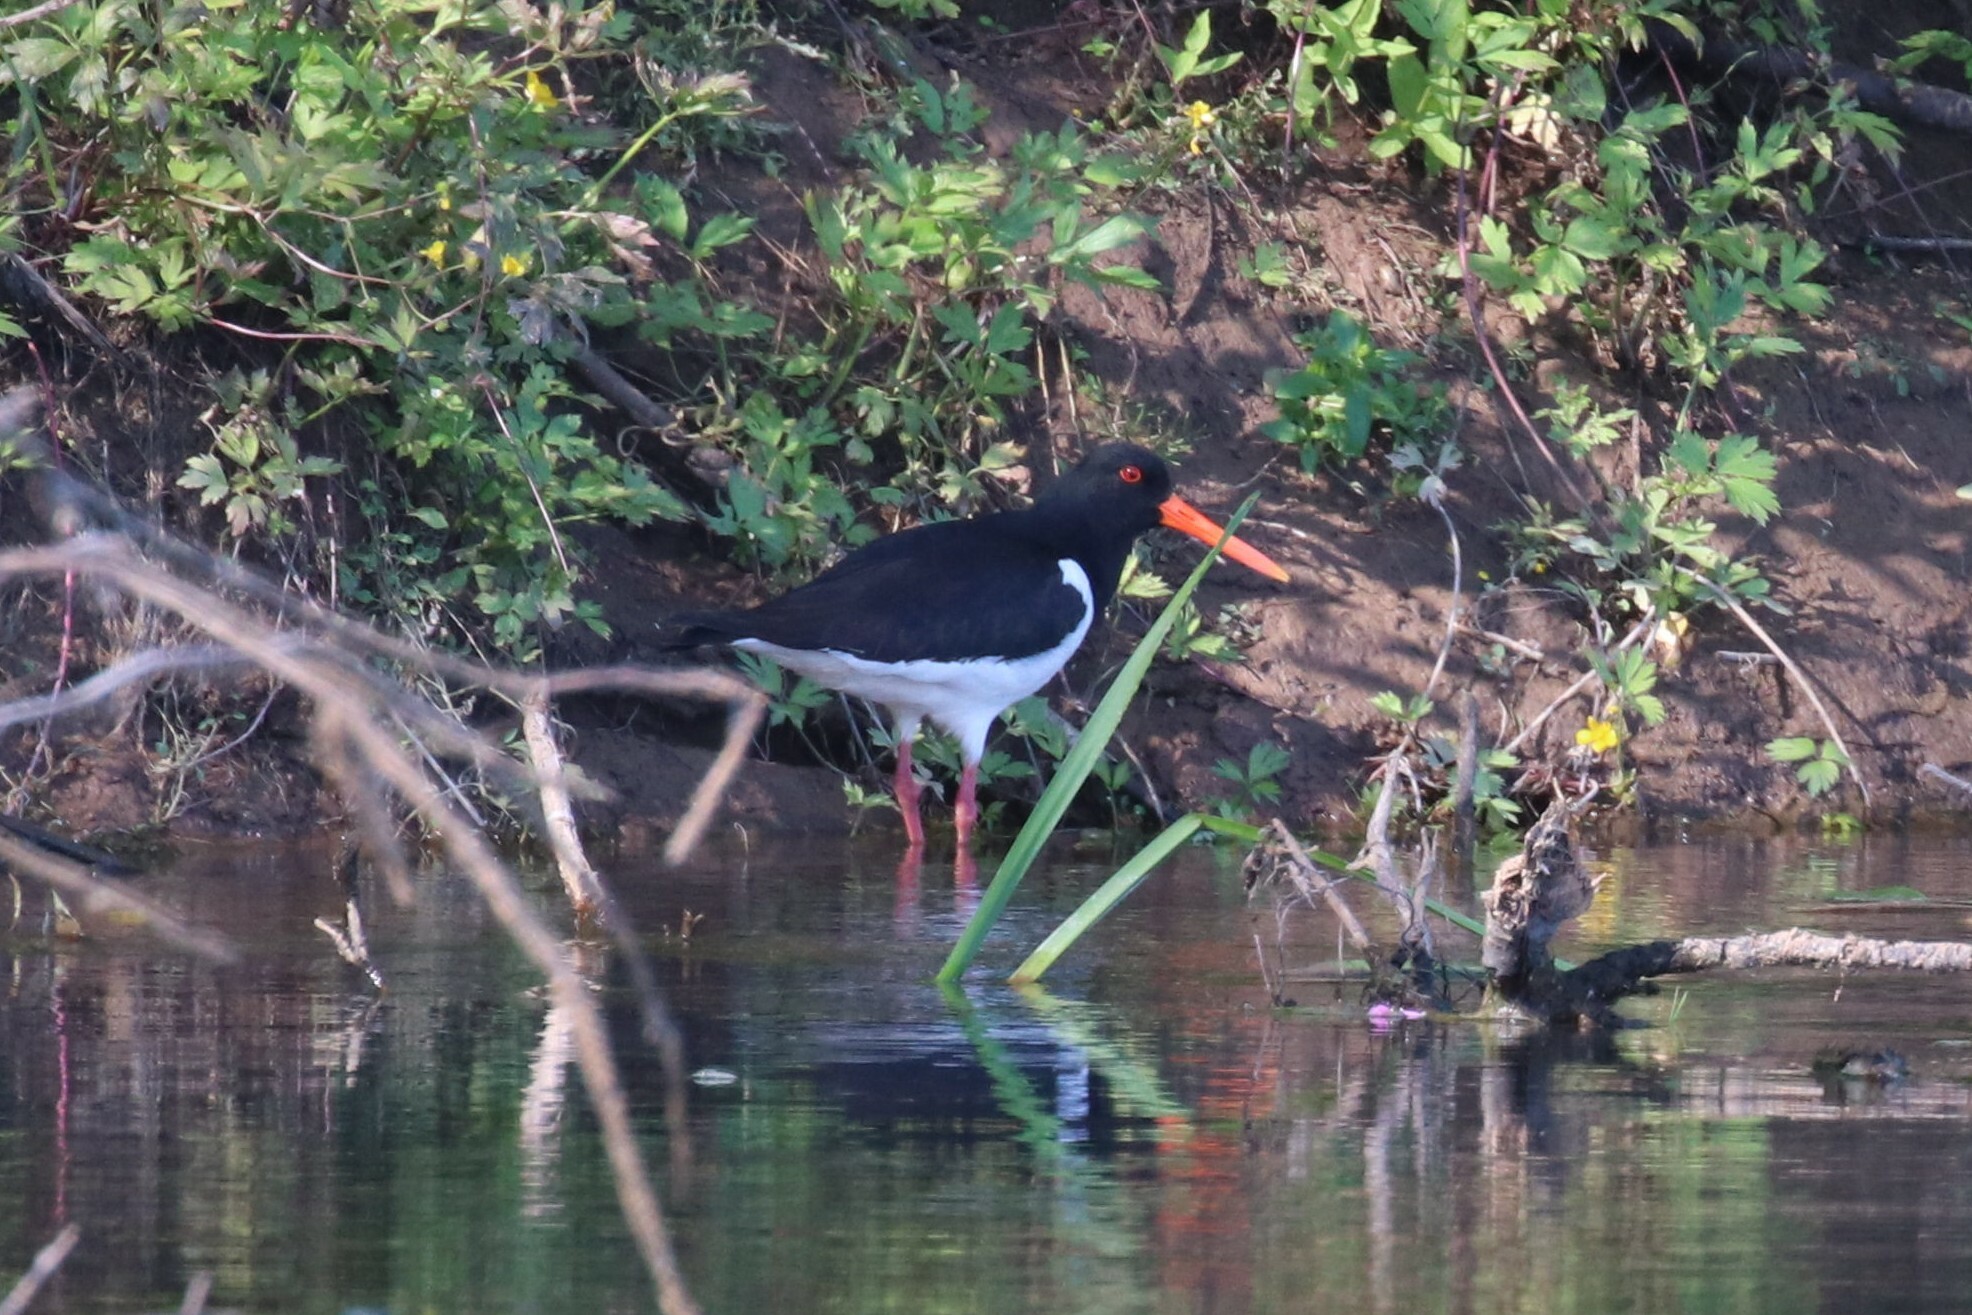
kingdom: Animalia
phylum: Chordata
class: Aves
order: Charadriiformes
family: Haematopodidae
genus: Haematopus
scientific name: Haematopus ostralegus
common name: Eurasian oystercatcher
